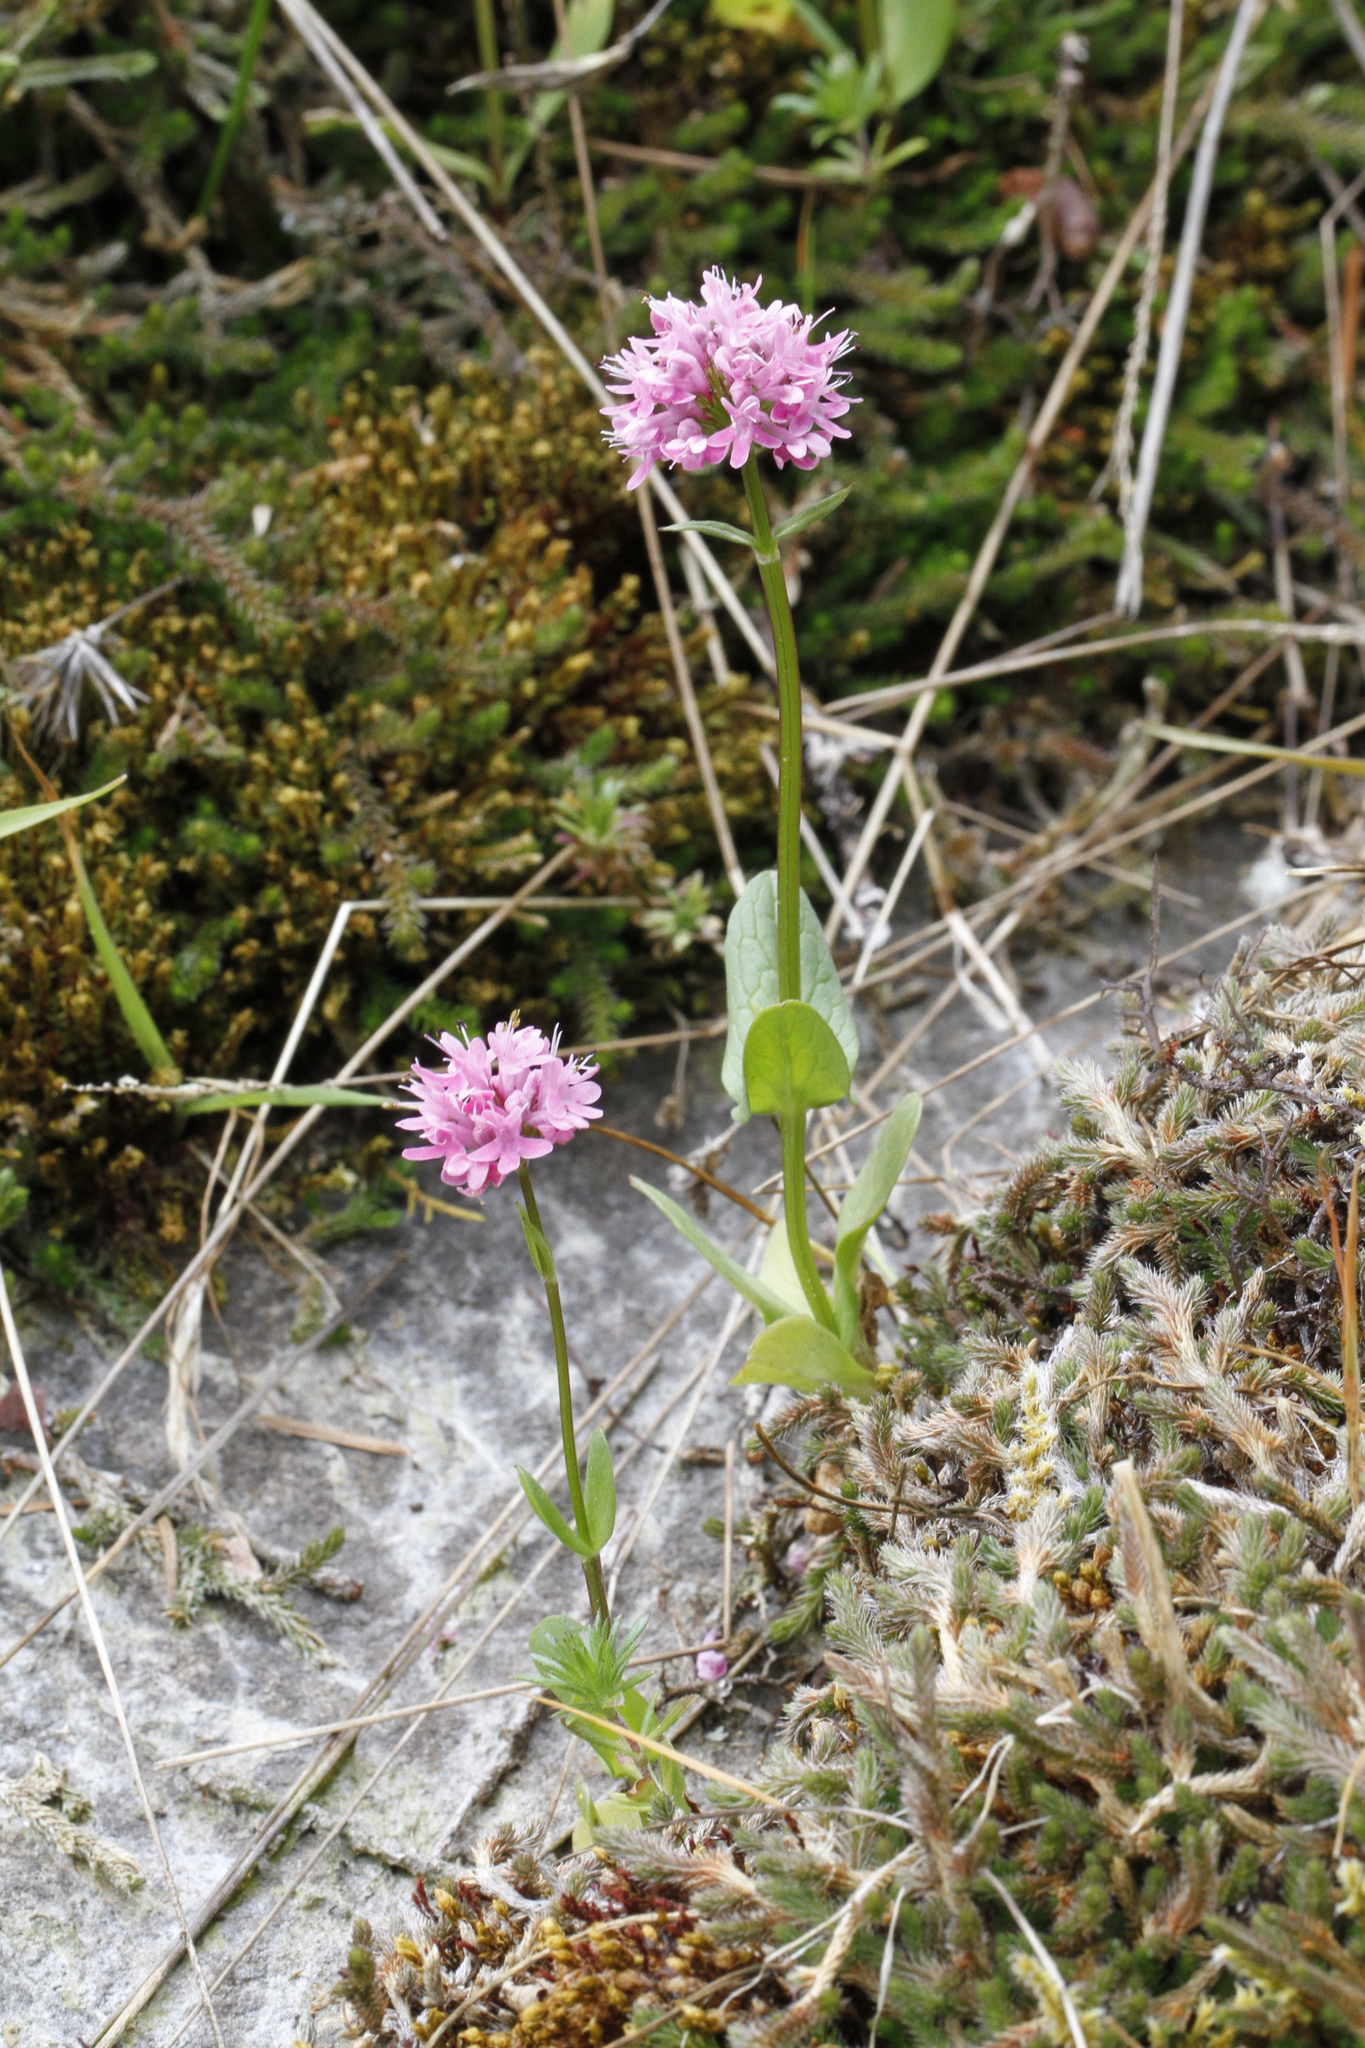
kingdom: Plantae
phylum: Tracheophyta
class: Magnoliopsida
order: Dipsacales
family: Caprifoliaceae
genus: Plectritis
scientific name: Plectritis congesta
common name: Pink plectritis
